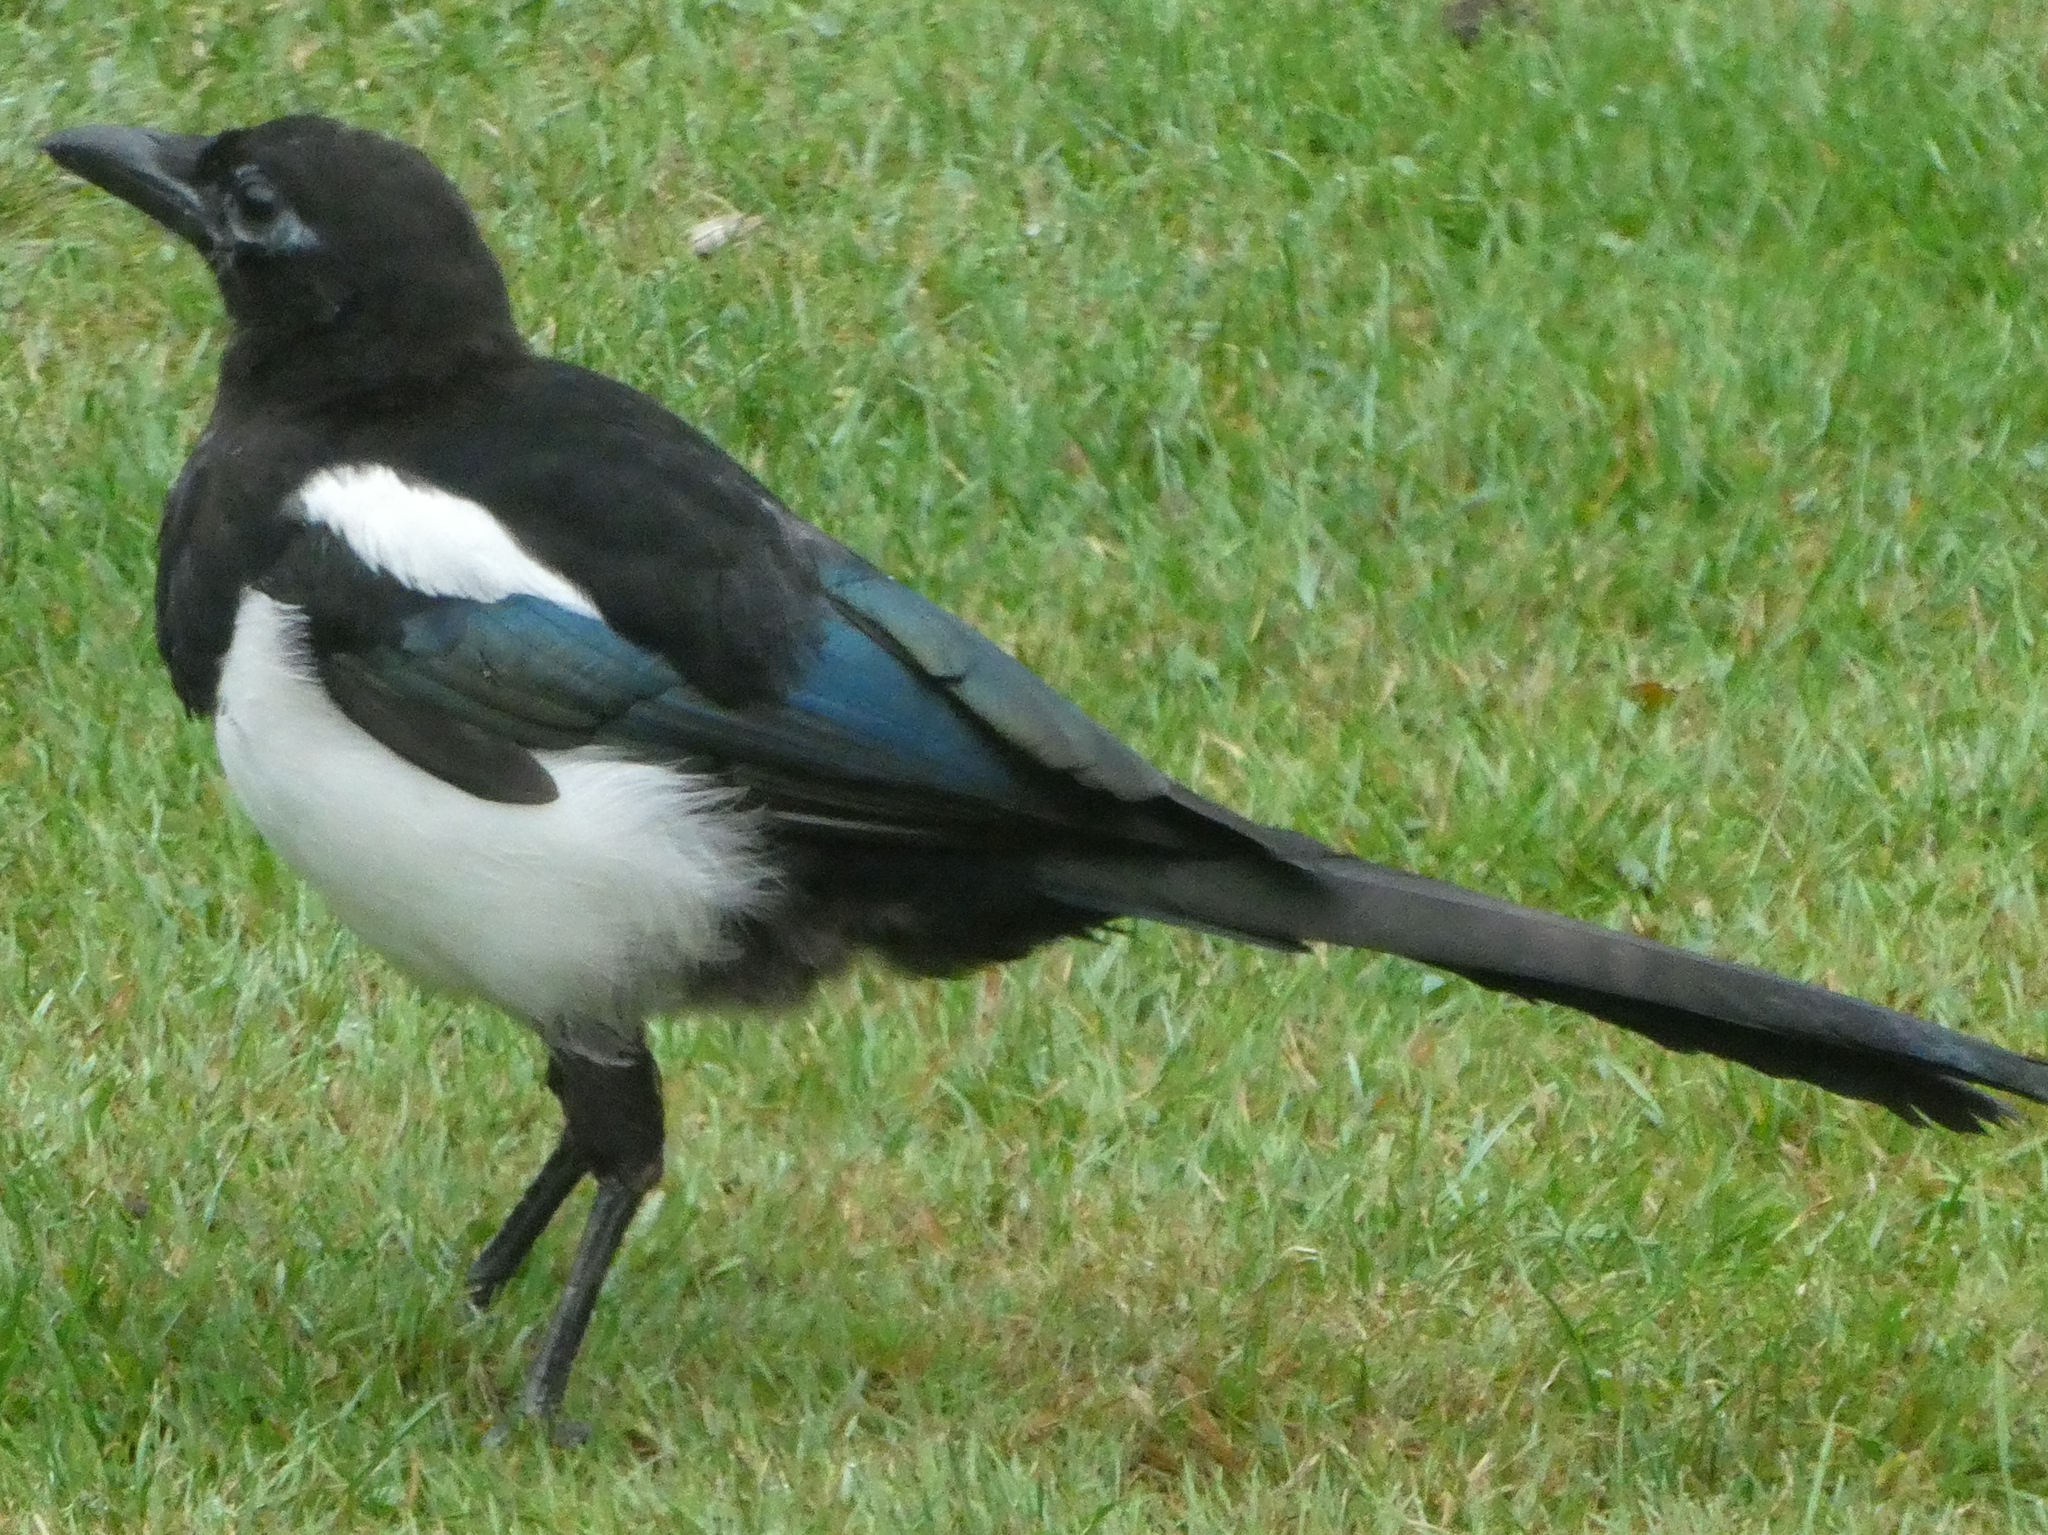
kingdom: Animalia
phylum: Chordata
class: Aves
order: Passeriformes
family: Corvidae
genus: Pica
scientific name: Pica pica
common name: Eurasian magpie
